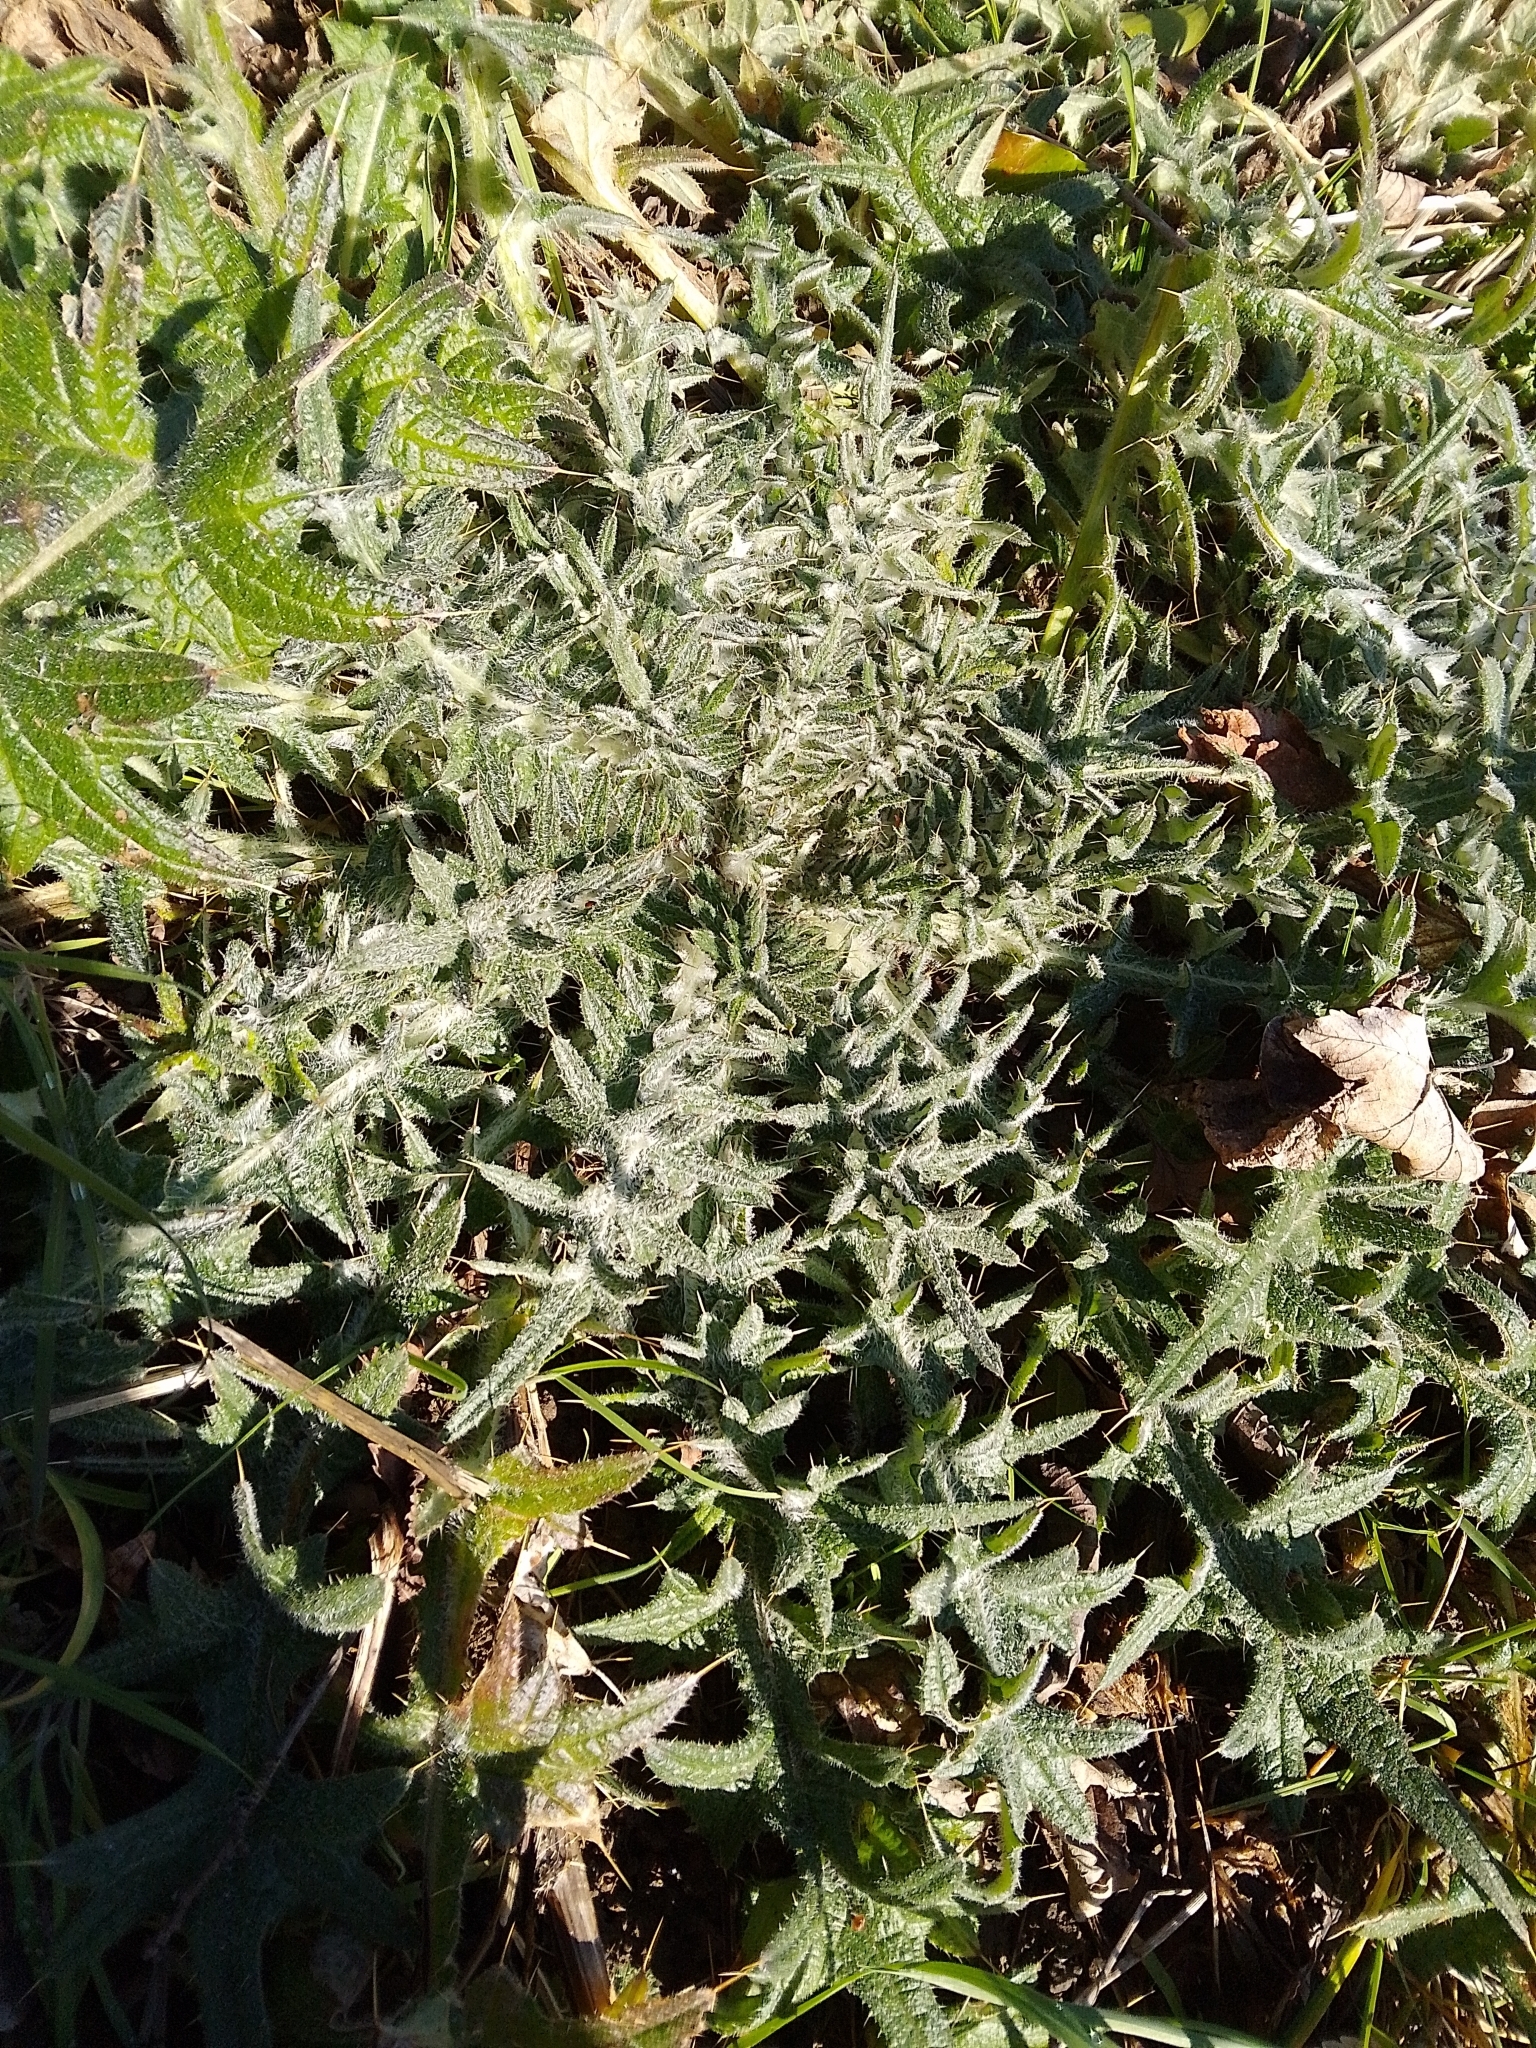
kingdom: Plantae
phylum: Tracheophyta
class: Magnoliopsida
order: Asterales
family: Asteraceae
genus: Cirsium
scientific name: Cirsium vulgare
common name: Bull thistle
